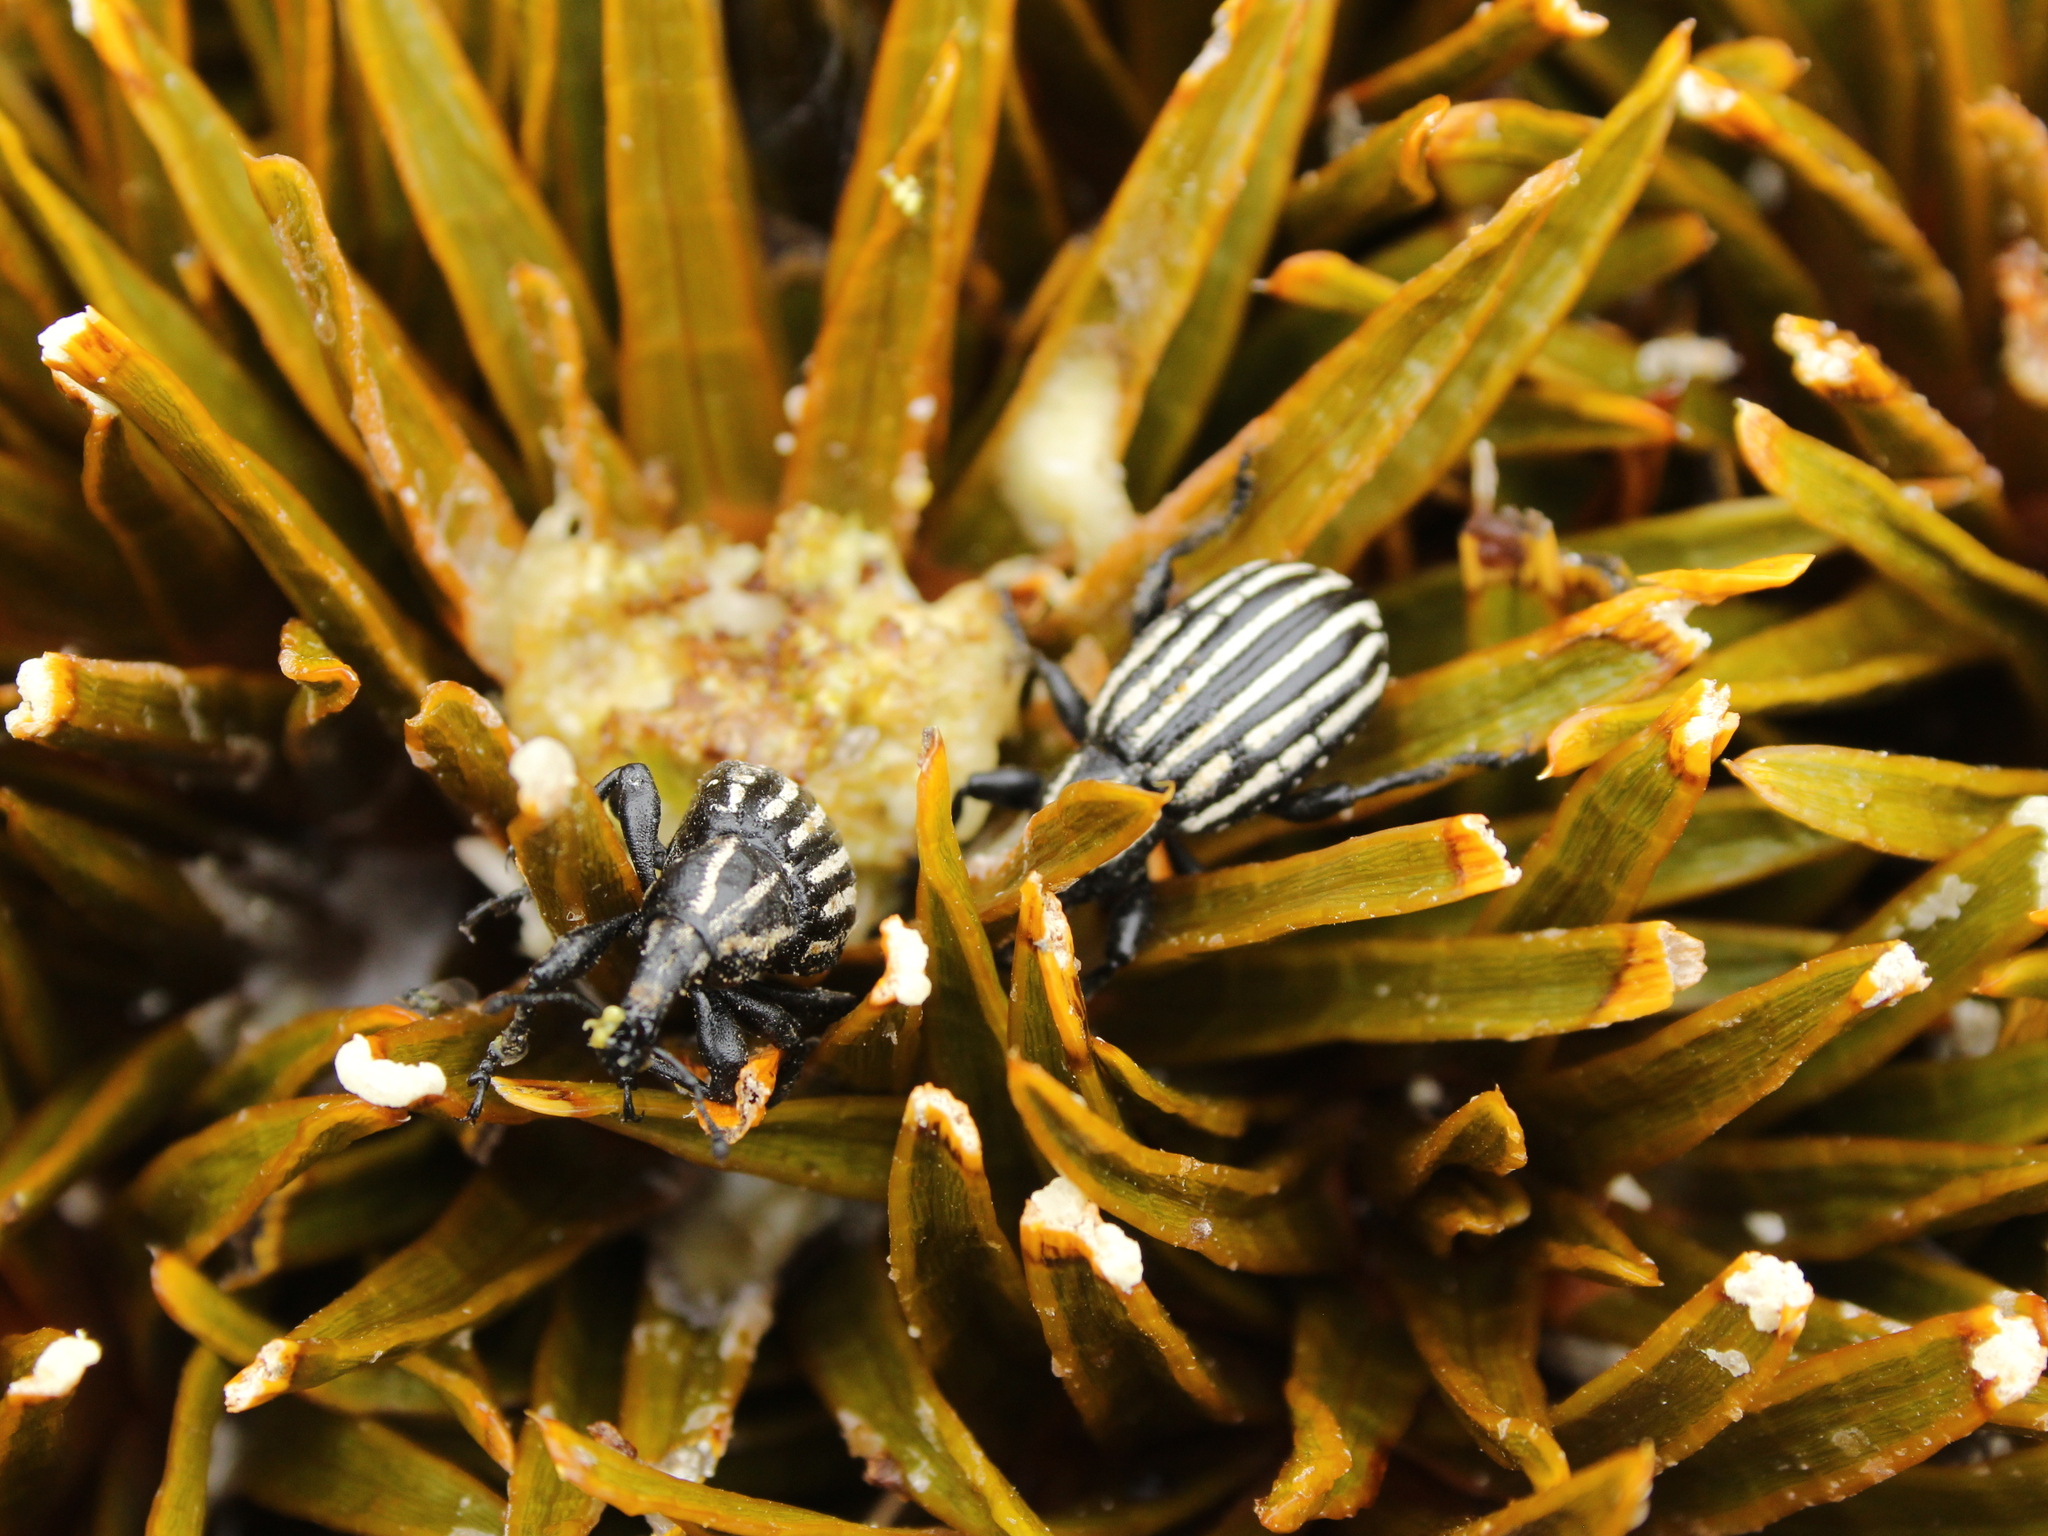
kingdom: Animalia
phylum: Arthropoda
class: Insecta
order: Coleoptera
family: Curculionidae
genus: Lyperobius
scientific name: Lyperobius hudsoni
